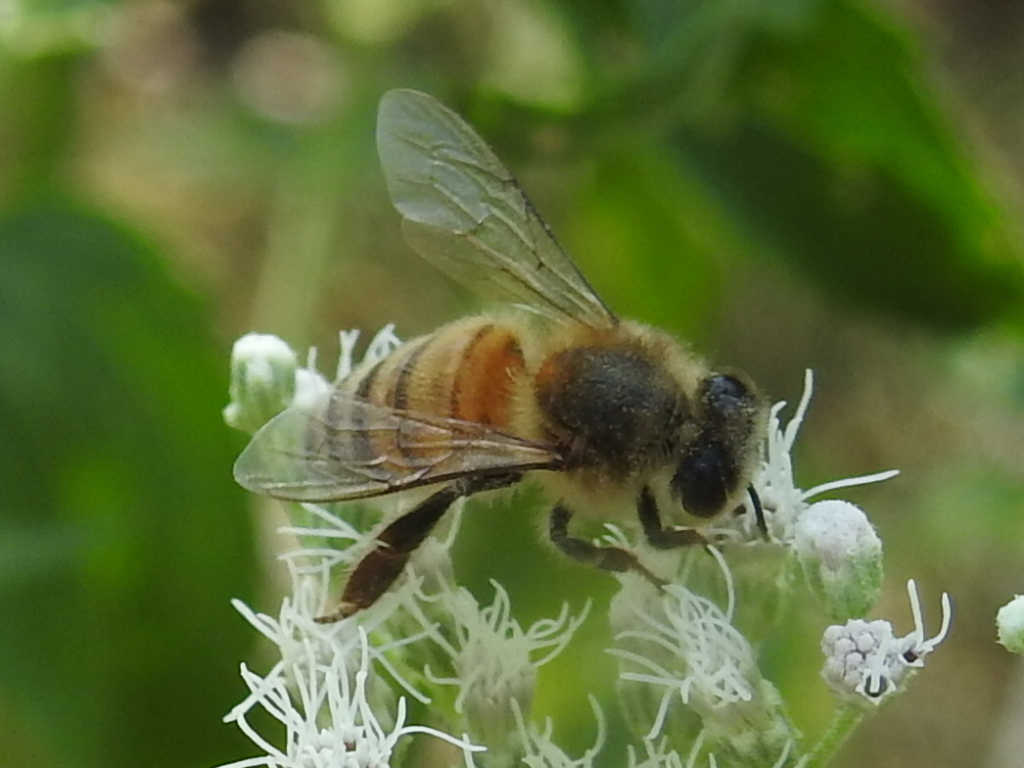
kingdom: Animalia
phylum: Arthropoda
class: Insecta
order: Hymenoptera
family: Apidae
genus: Apis
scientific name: Apis mellifera
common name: Honey bee
